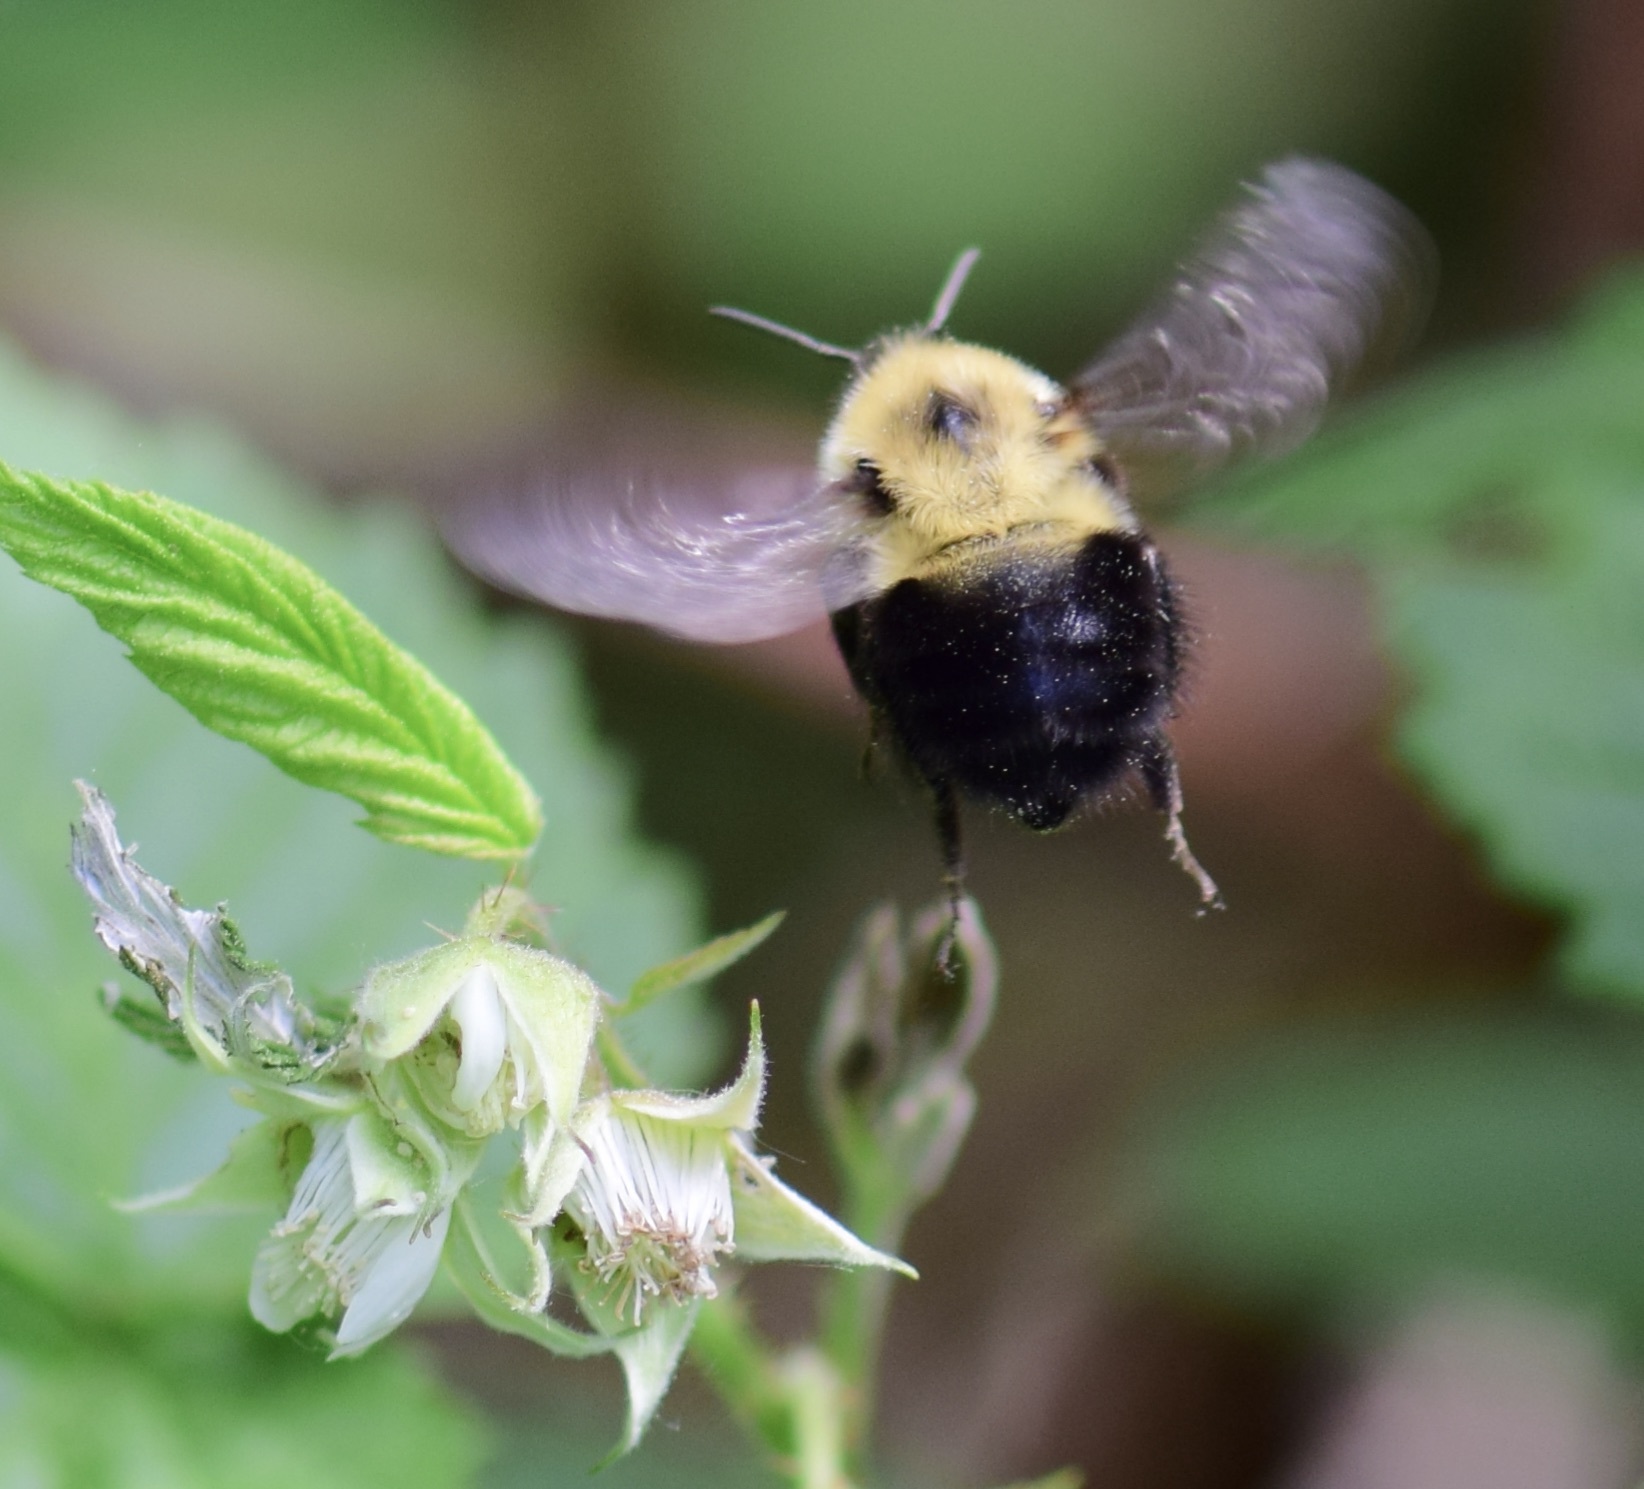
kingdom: Animalia
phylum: Arthropoda
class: Insecta
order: Hymenoptera
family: Apidae
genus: Bombus
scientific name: Bombus bimaculatus
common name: Two-spotted bumble bee
